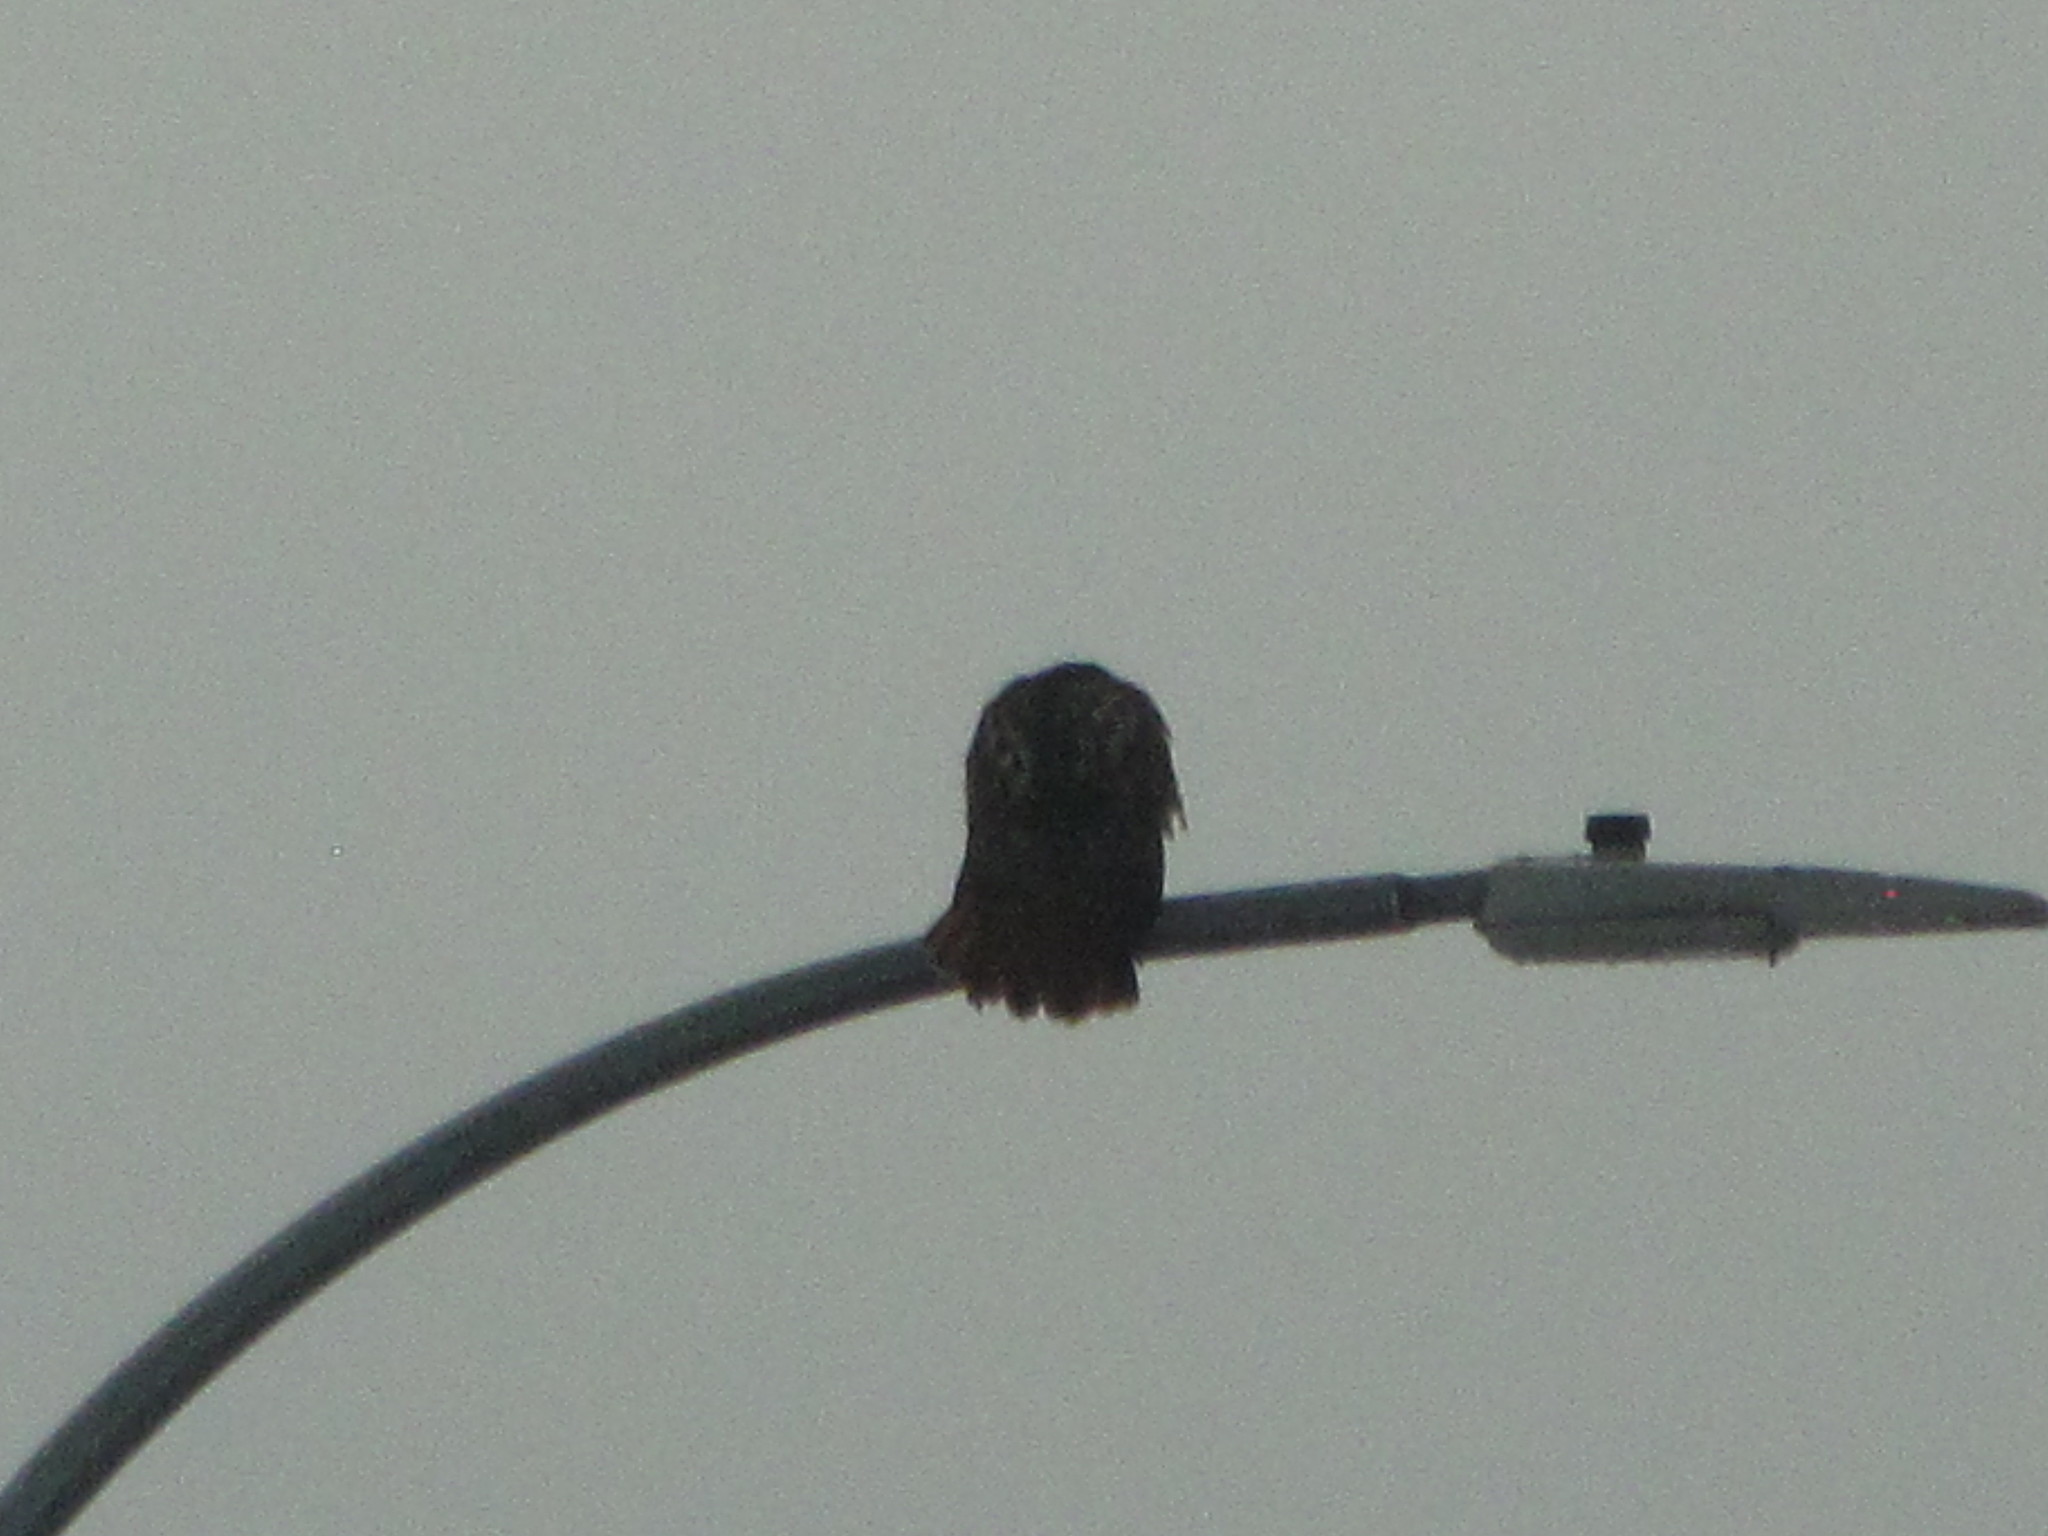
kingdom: Animalia
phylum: Chordata
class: Aves
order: Accipitriformes
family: Accipitridae
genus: Buteo
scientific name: Buteo jamaicensis
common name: Red-tailed hawk
